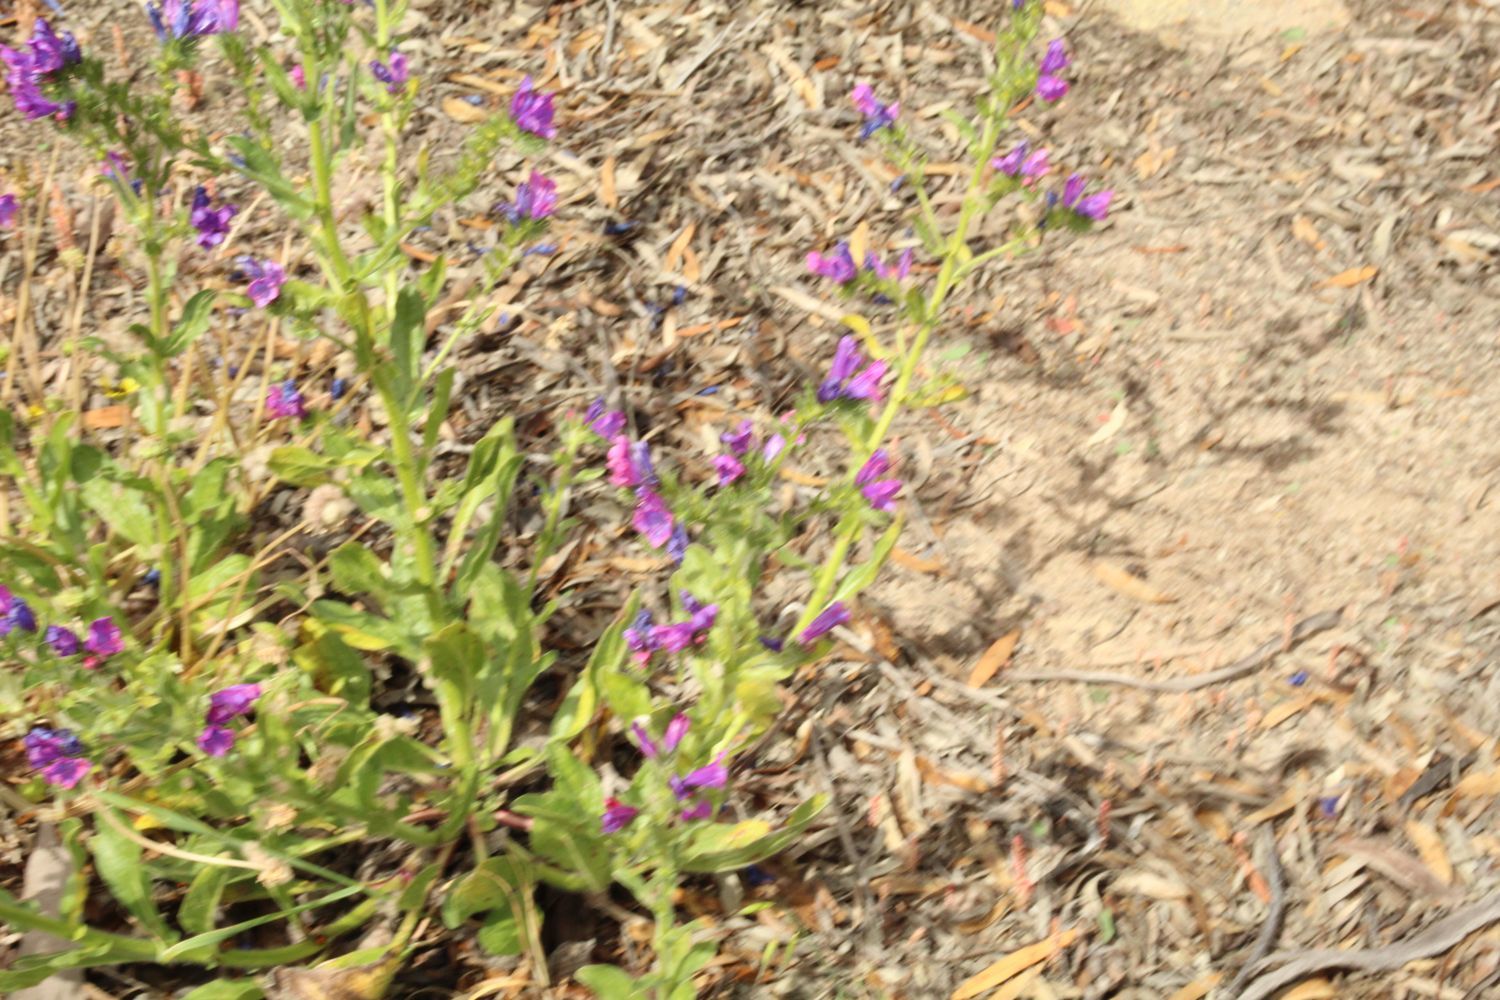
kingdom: Plantae
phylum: Tracheophyta
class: Magnoliopsida
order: Boraginales
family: Boraginaceae
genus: Echium
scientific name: Echium plantagineum
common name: Purple viper's-bugloss
